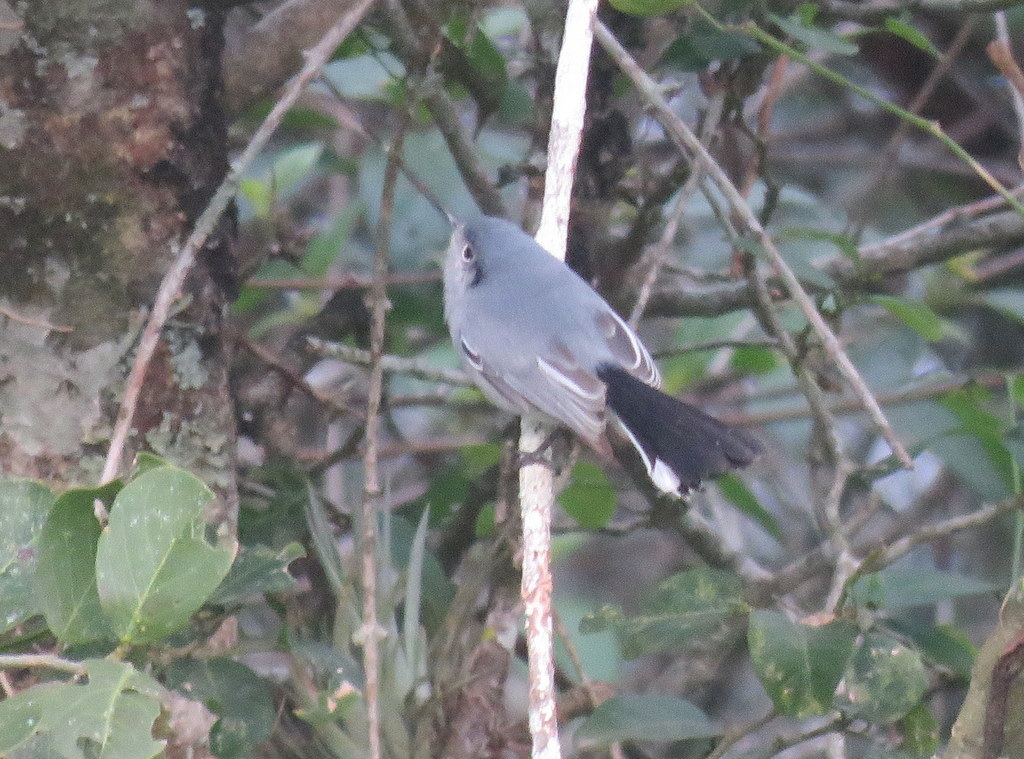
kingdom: Animalia
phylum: Chordata
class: Aves
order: Passeriformes
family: Polioptilidae
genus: Polioptila
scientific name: Polioptila dumicola
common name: Masked gnatcatcher
